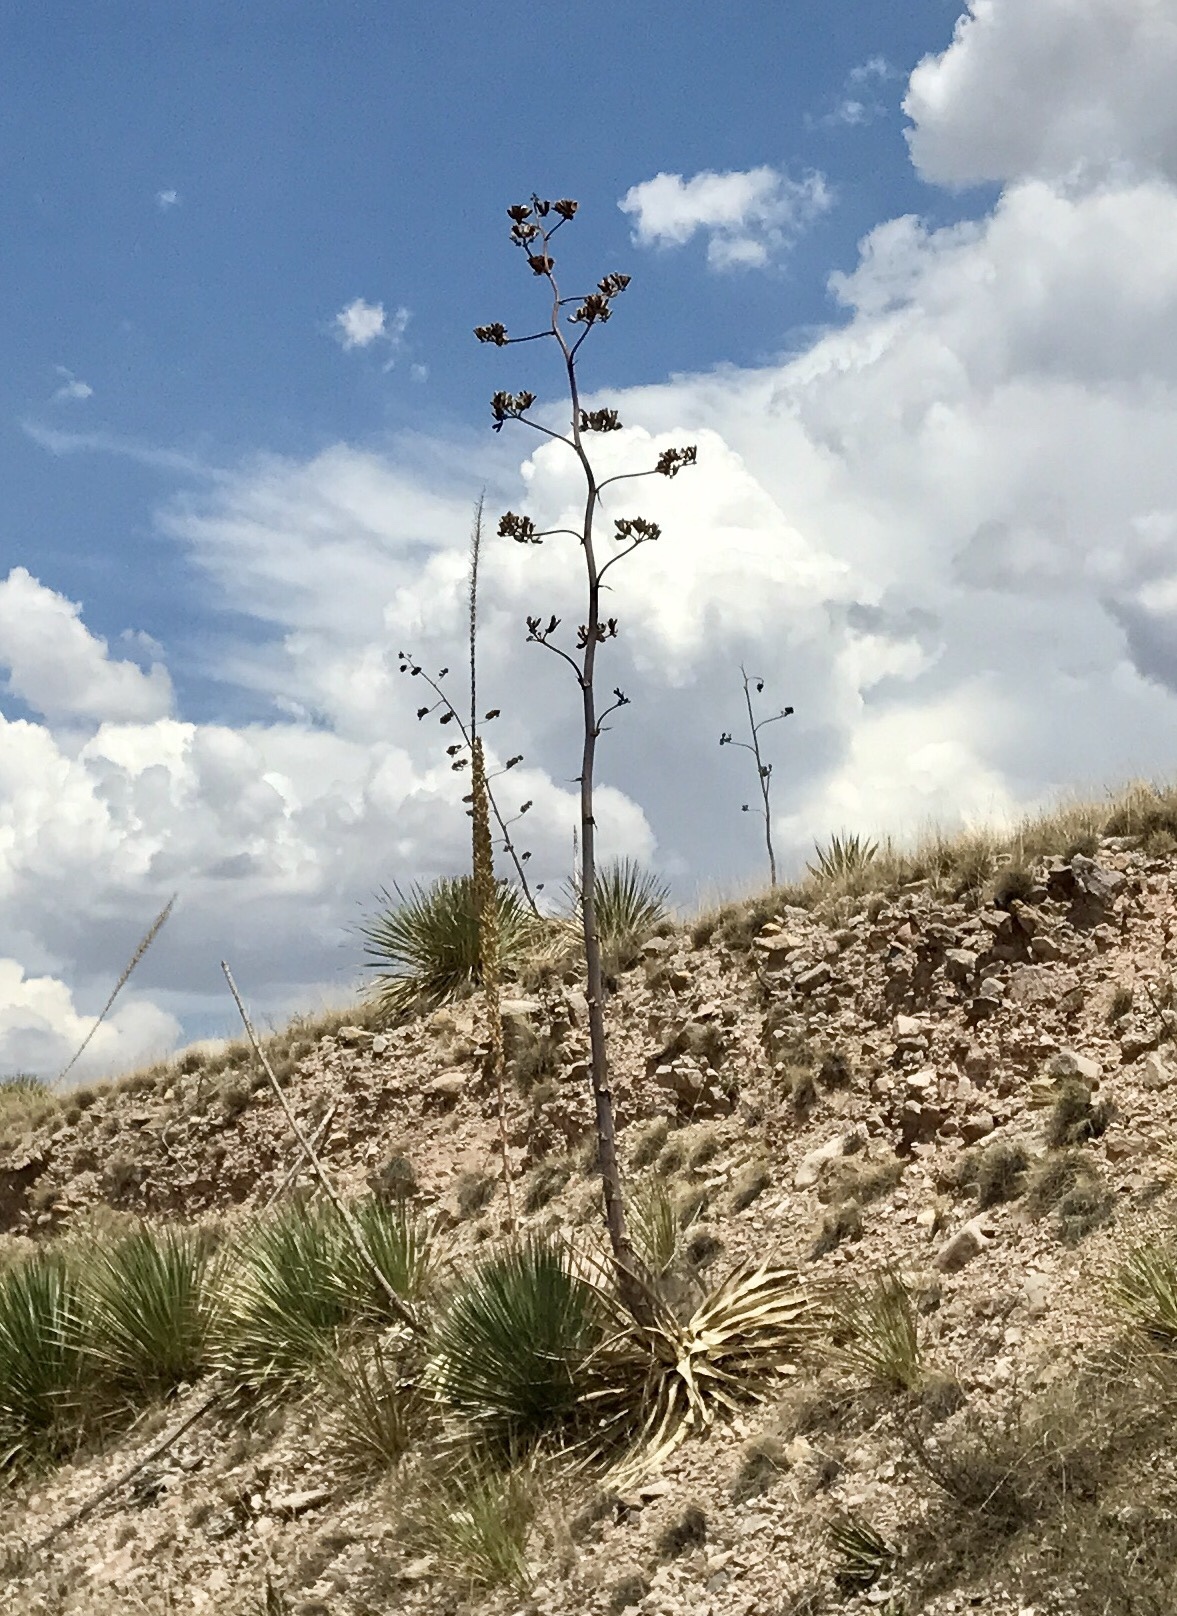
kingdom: Plantae
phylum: Tracheophyta
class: Liliopsida
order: Asparagales
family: Asparagaceae
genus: Agave
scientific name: Agave palmeri
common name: Palmer agave
